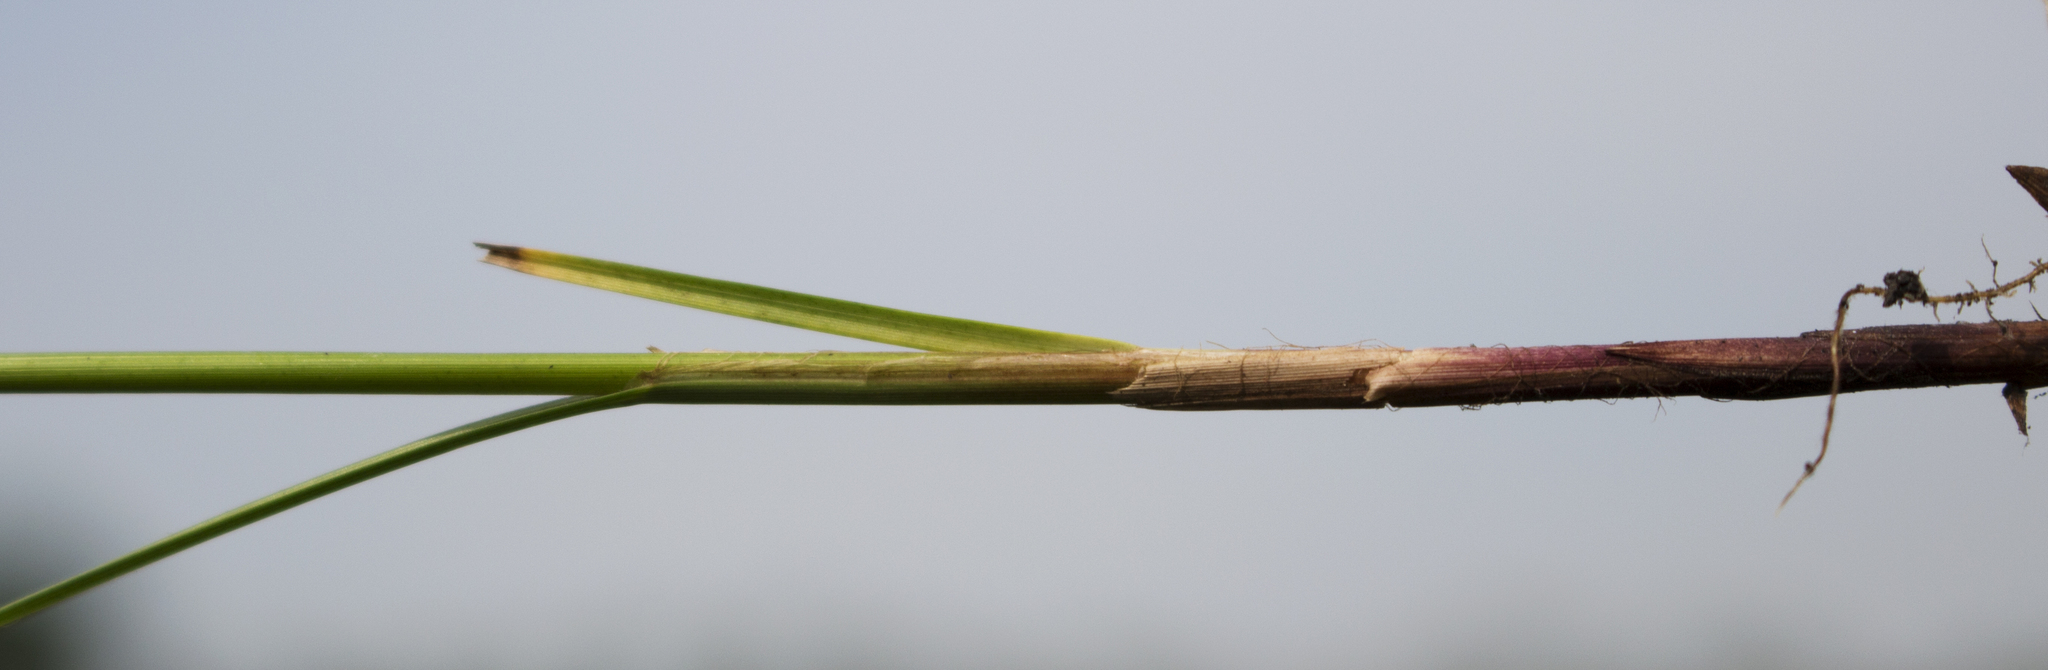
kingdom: Plantae
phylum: Tracheophyta
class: Liliopsida
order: Poales
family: Cyperaceae
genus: Carex
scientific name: Carex pellita
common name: Woolly sedge
